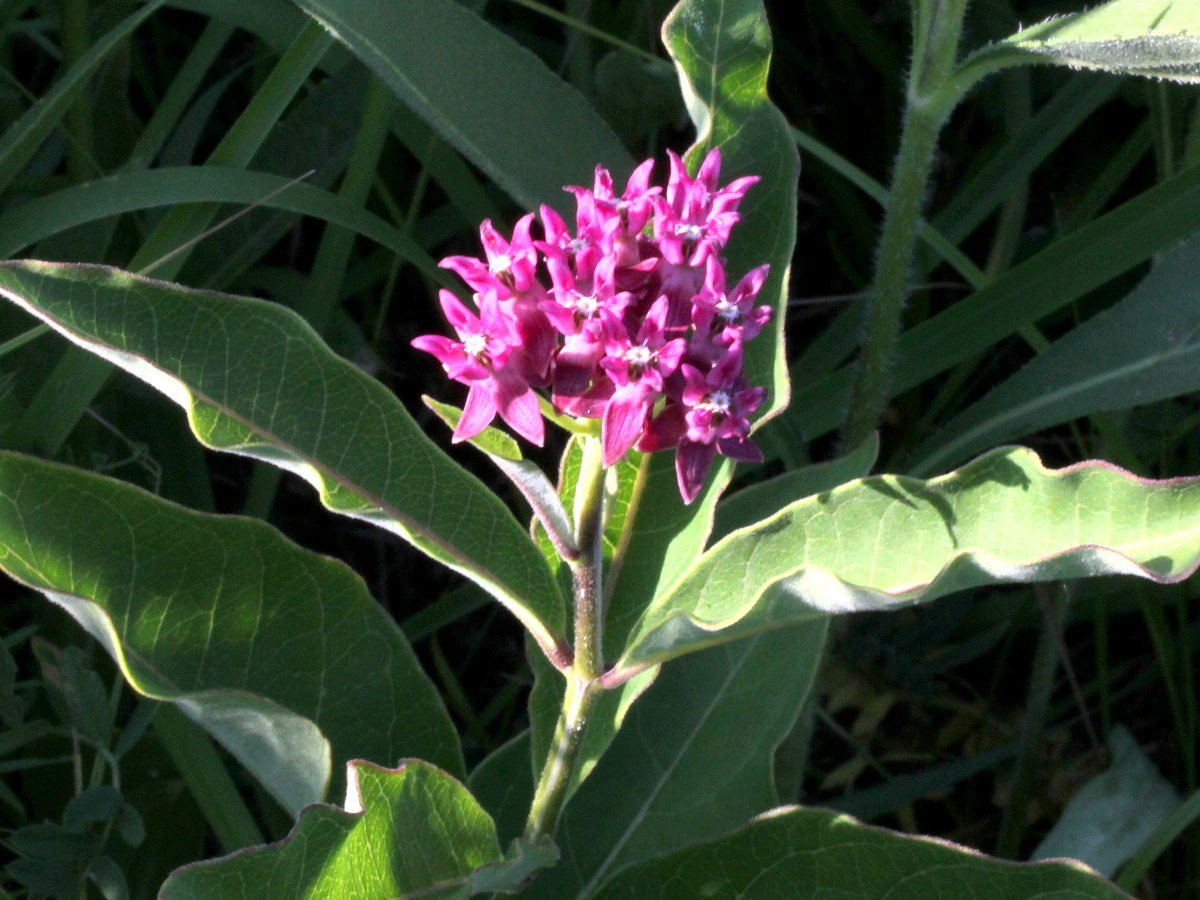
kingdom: Plantae
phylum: Tracheophyta
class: Magnoliopsida
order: Gentianales
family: Apocynaceae
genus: Asclepias
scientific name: Asclepias purpurascens
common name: Purple milkweed
